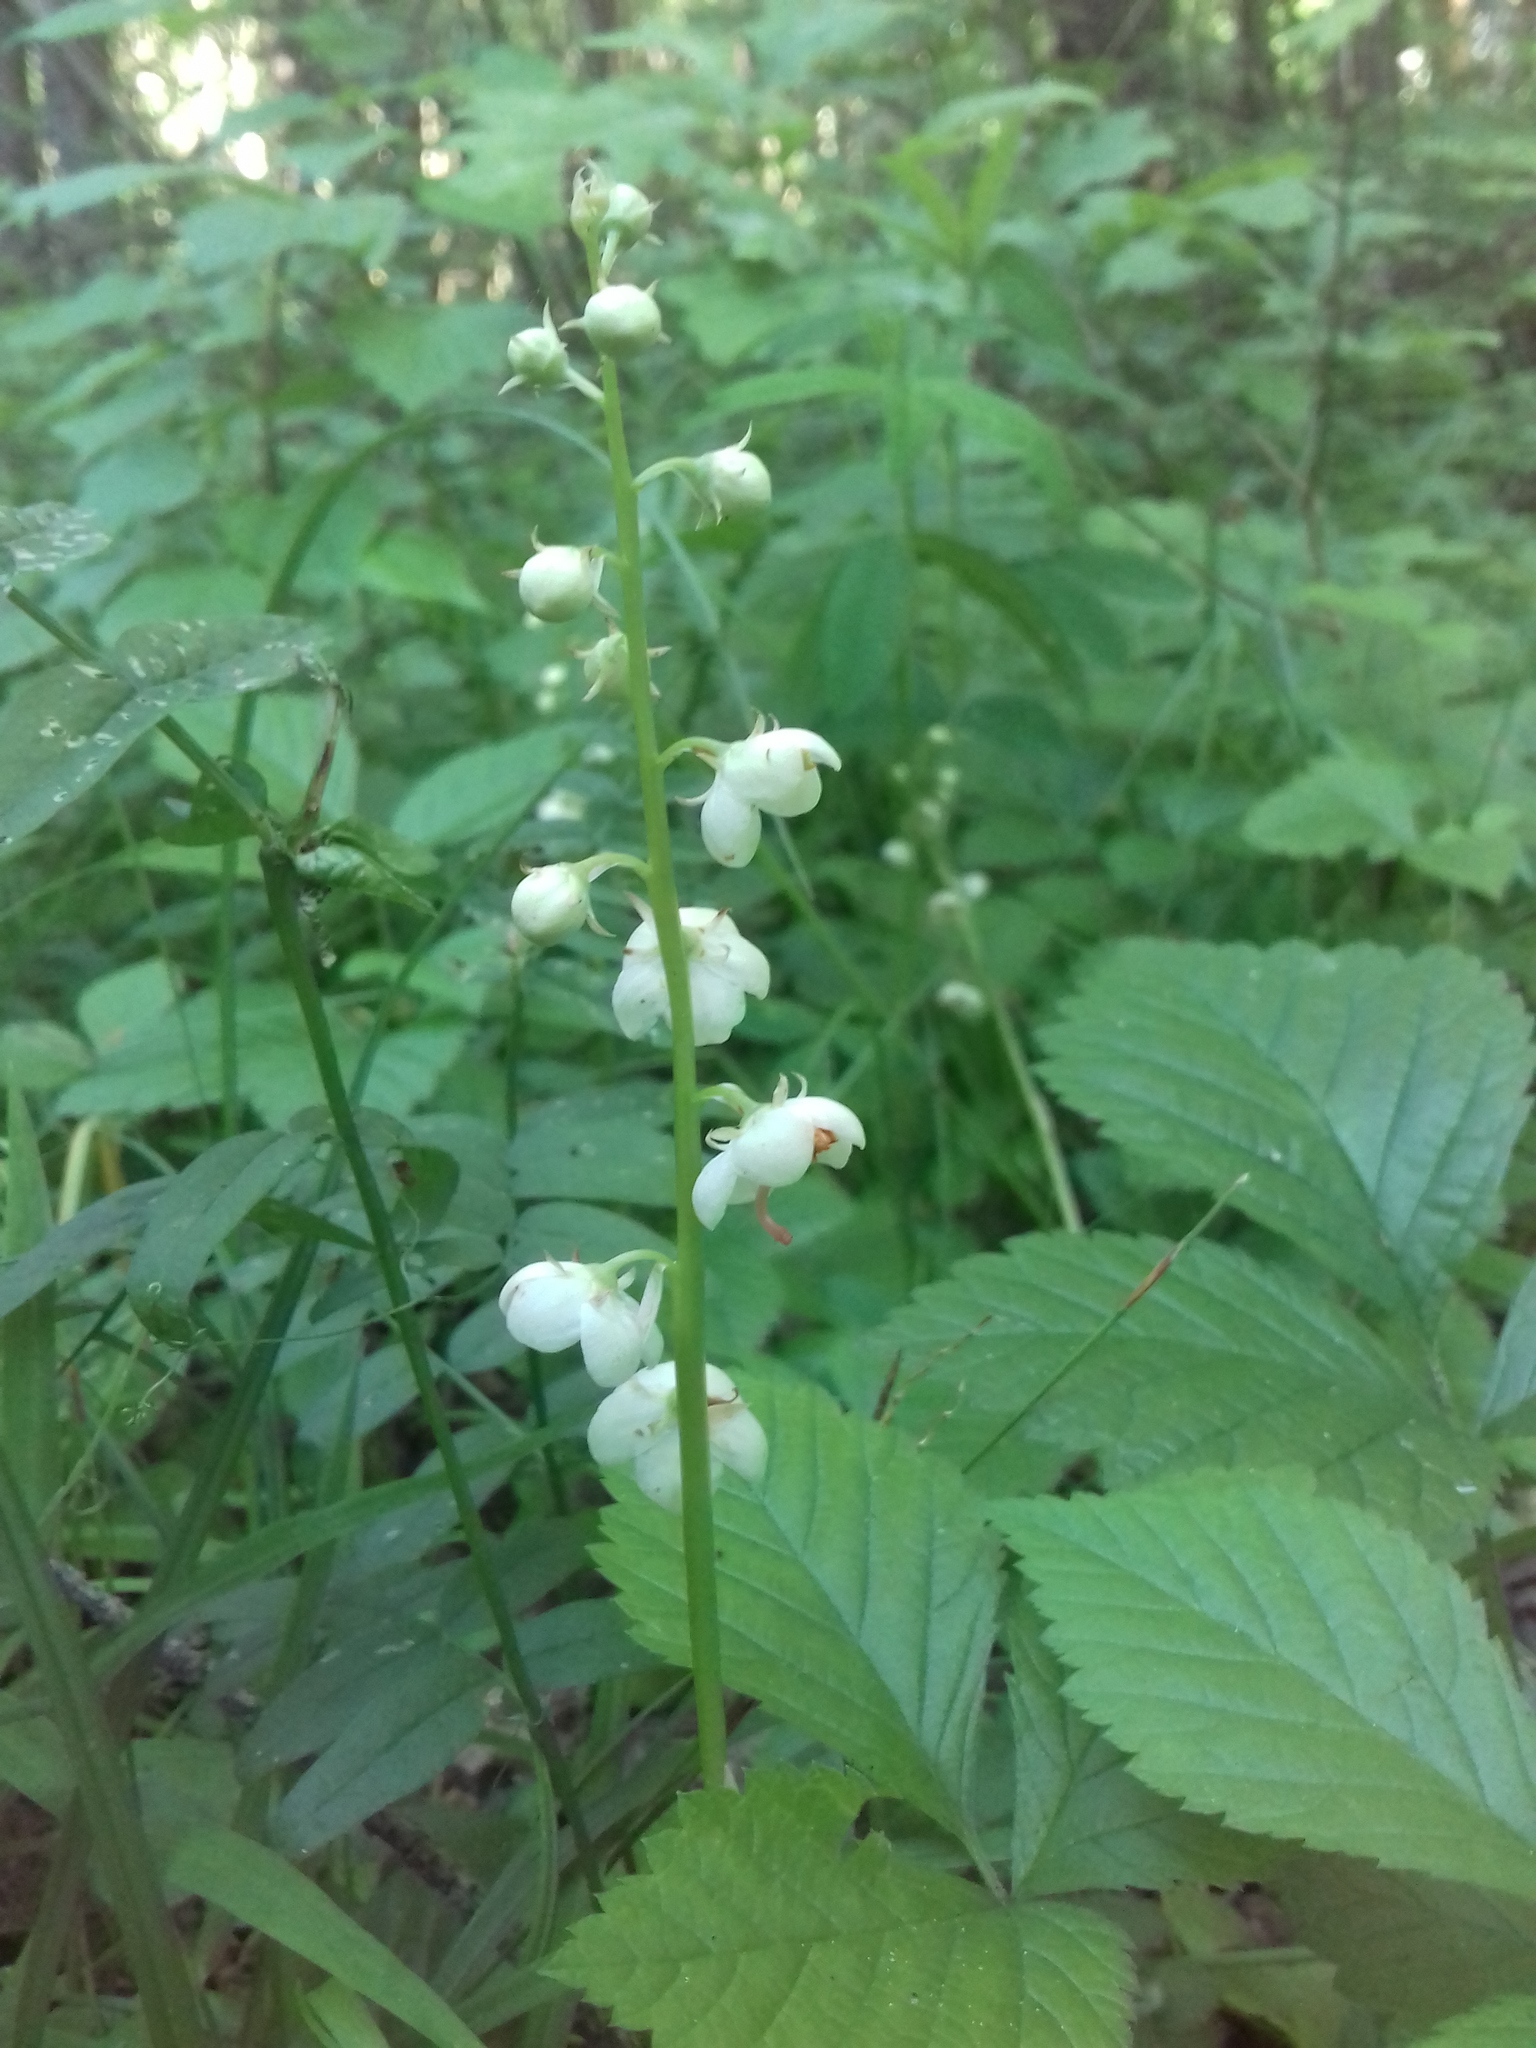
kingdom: Plantae
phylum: Tracheophyta
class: Magnoliopsida
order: Ericales
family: Ericaceae
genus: Pyrola
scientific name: Pyrola rotundifolia
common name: Round-leaved wintergreen
